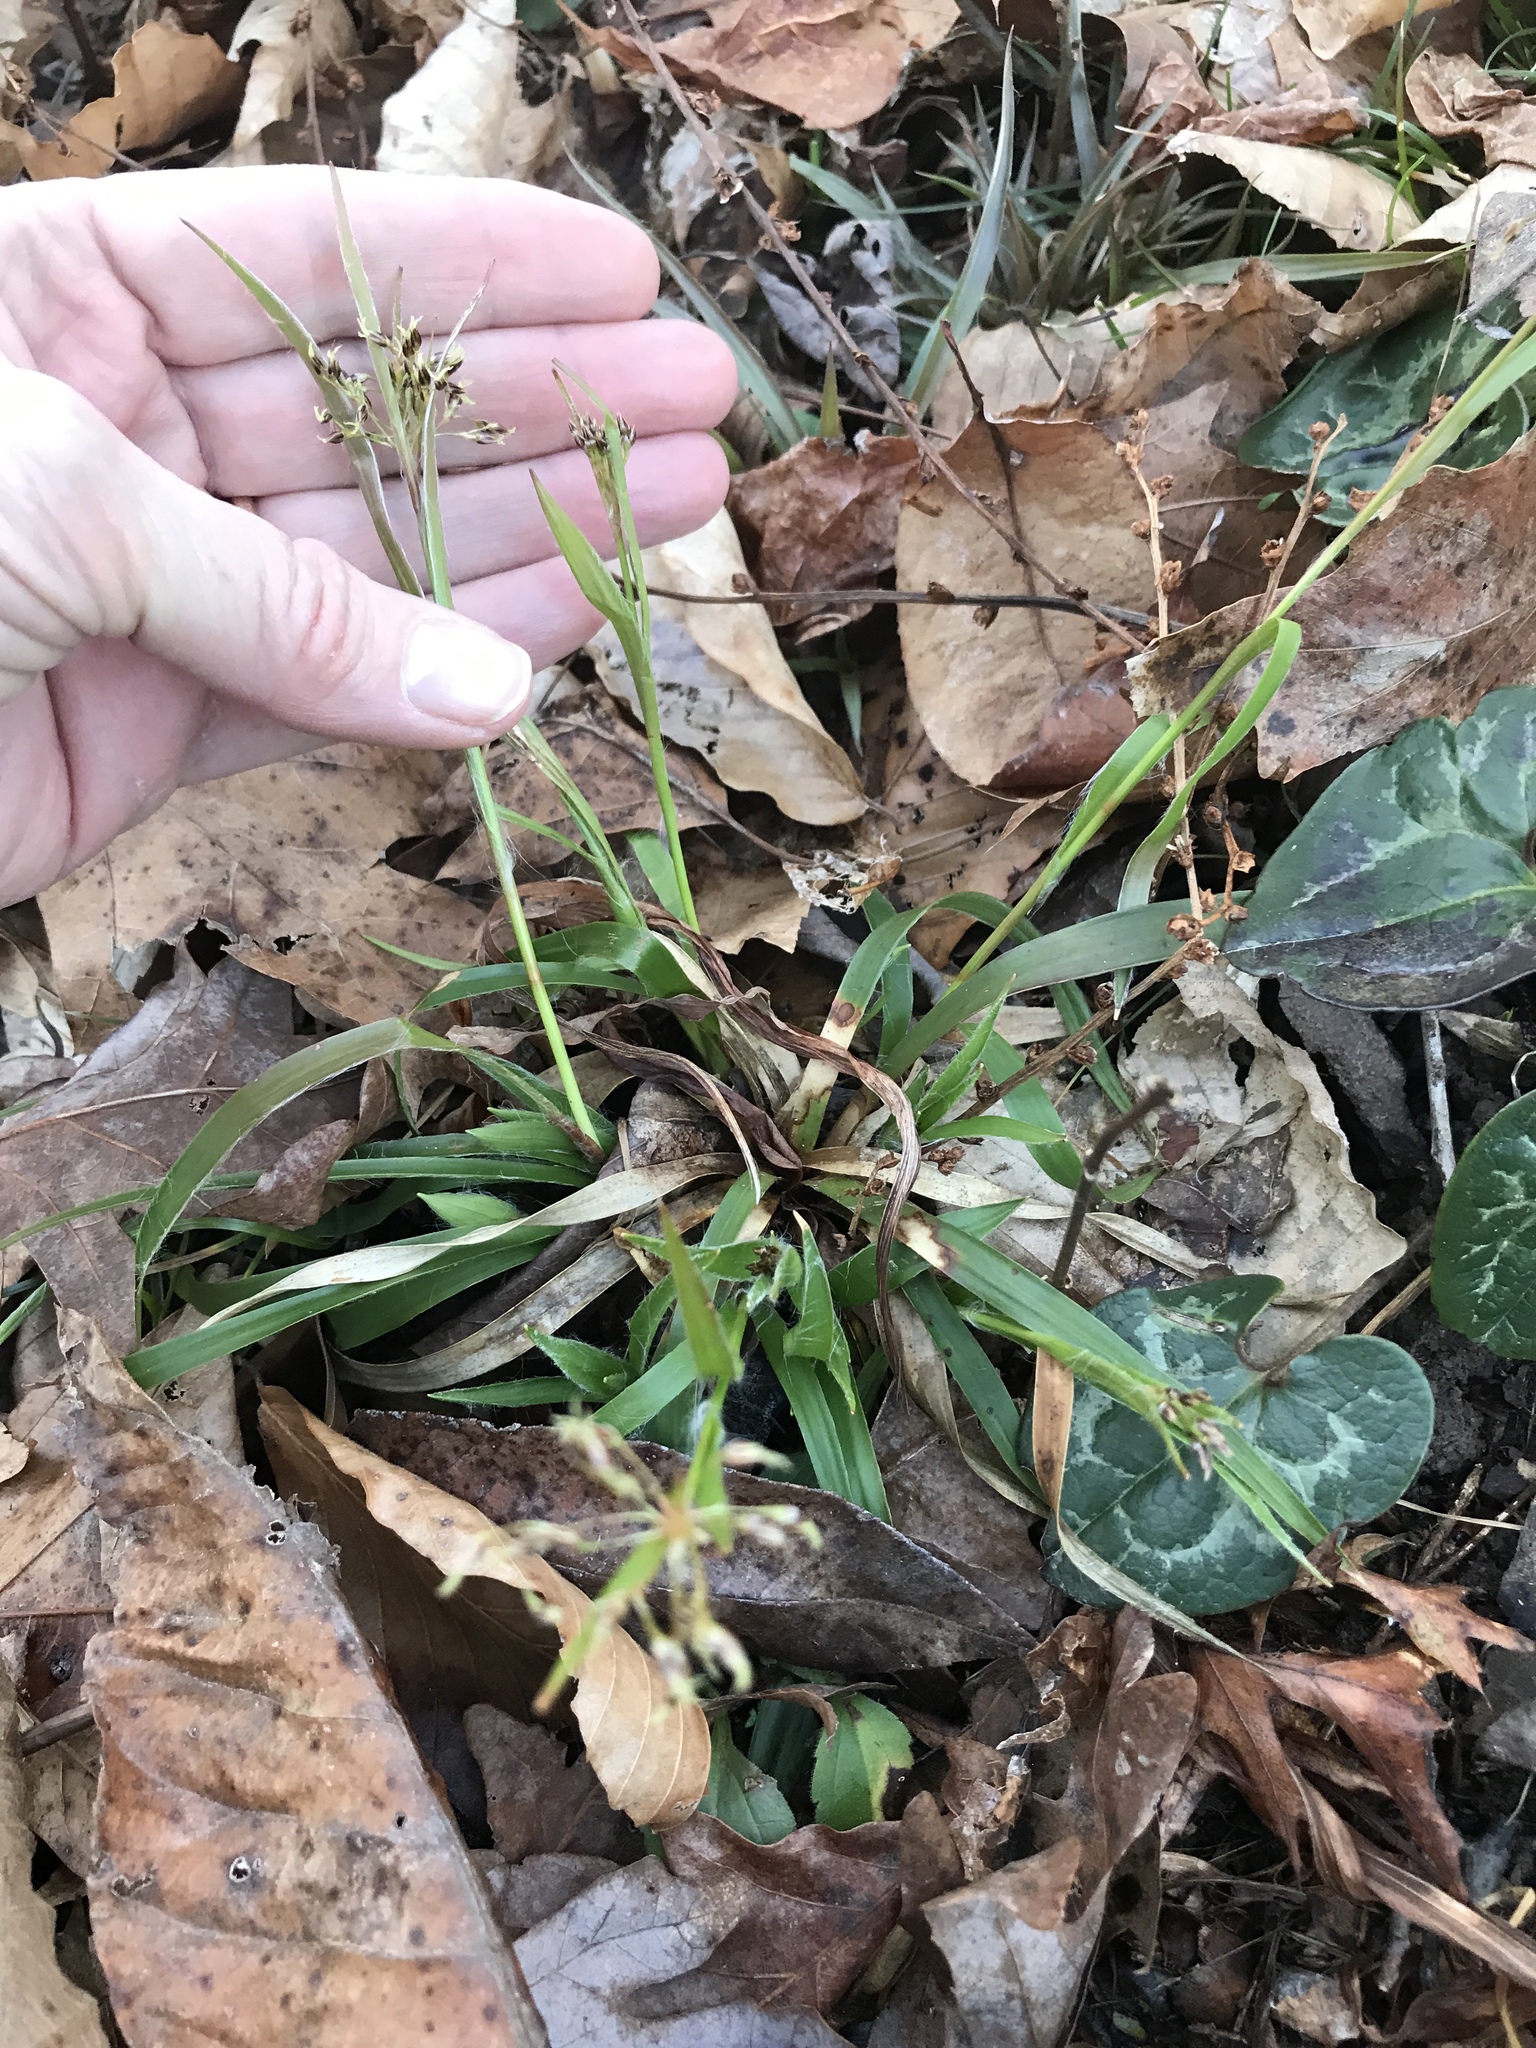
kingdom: Plantae
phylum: Tracheophyta
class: Liliopsida
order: Poales
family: Juncaceae
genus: Luzula
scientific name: Luzula acuminata
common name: Hairy woodrush
